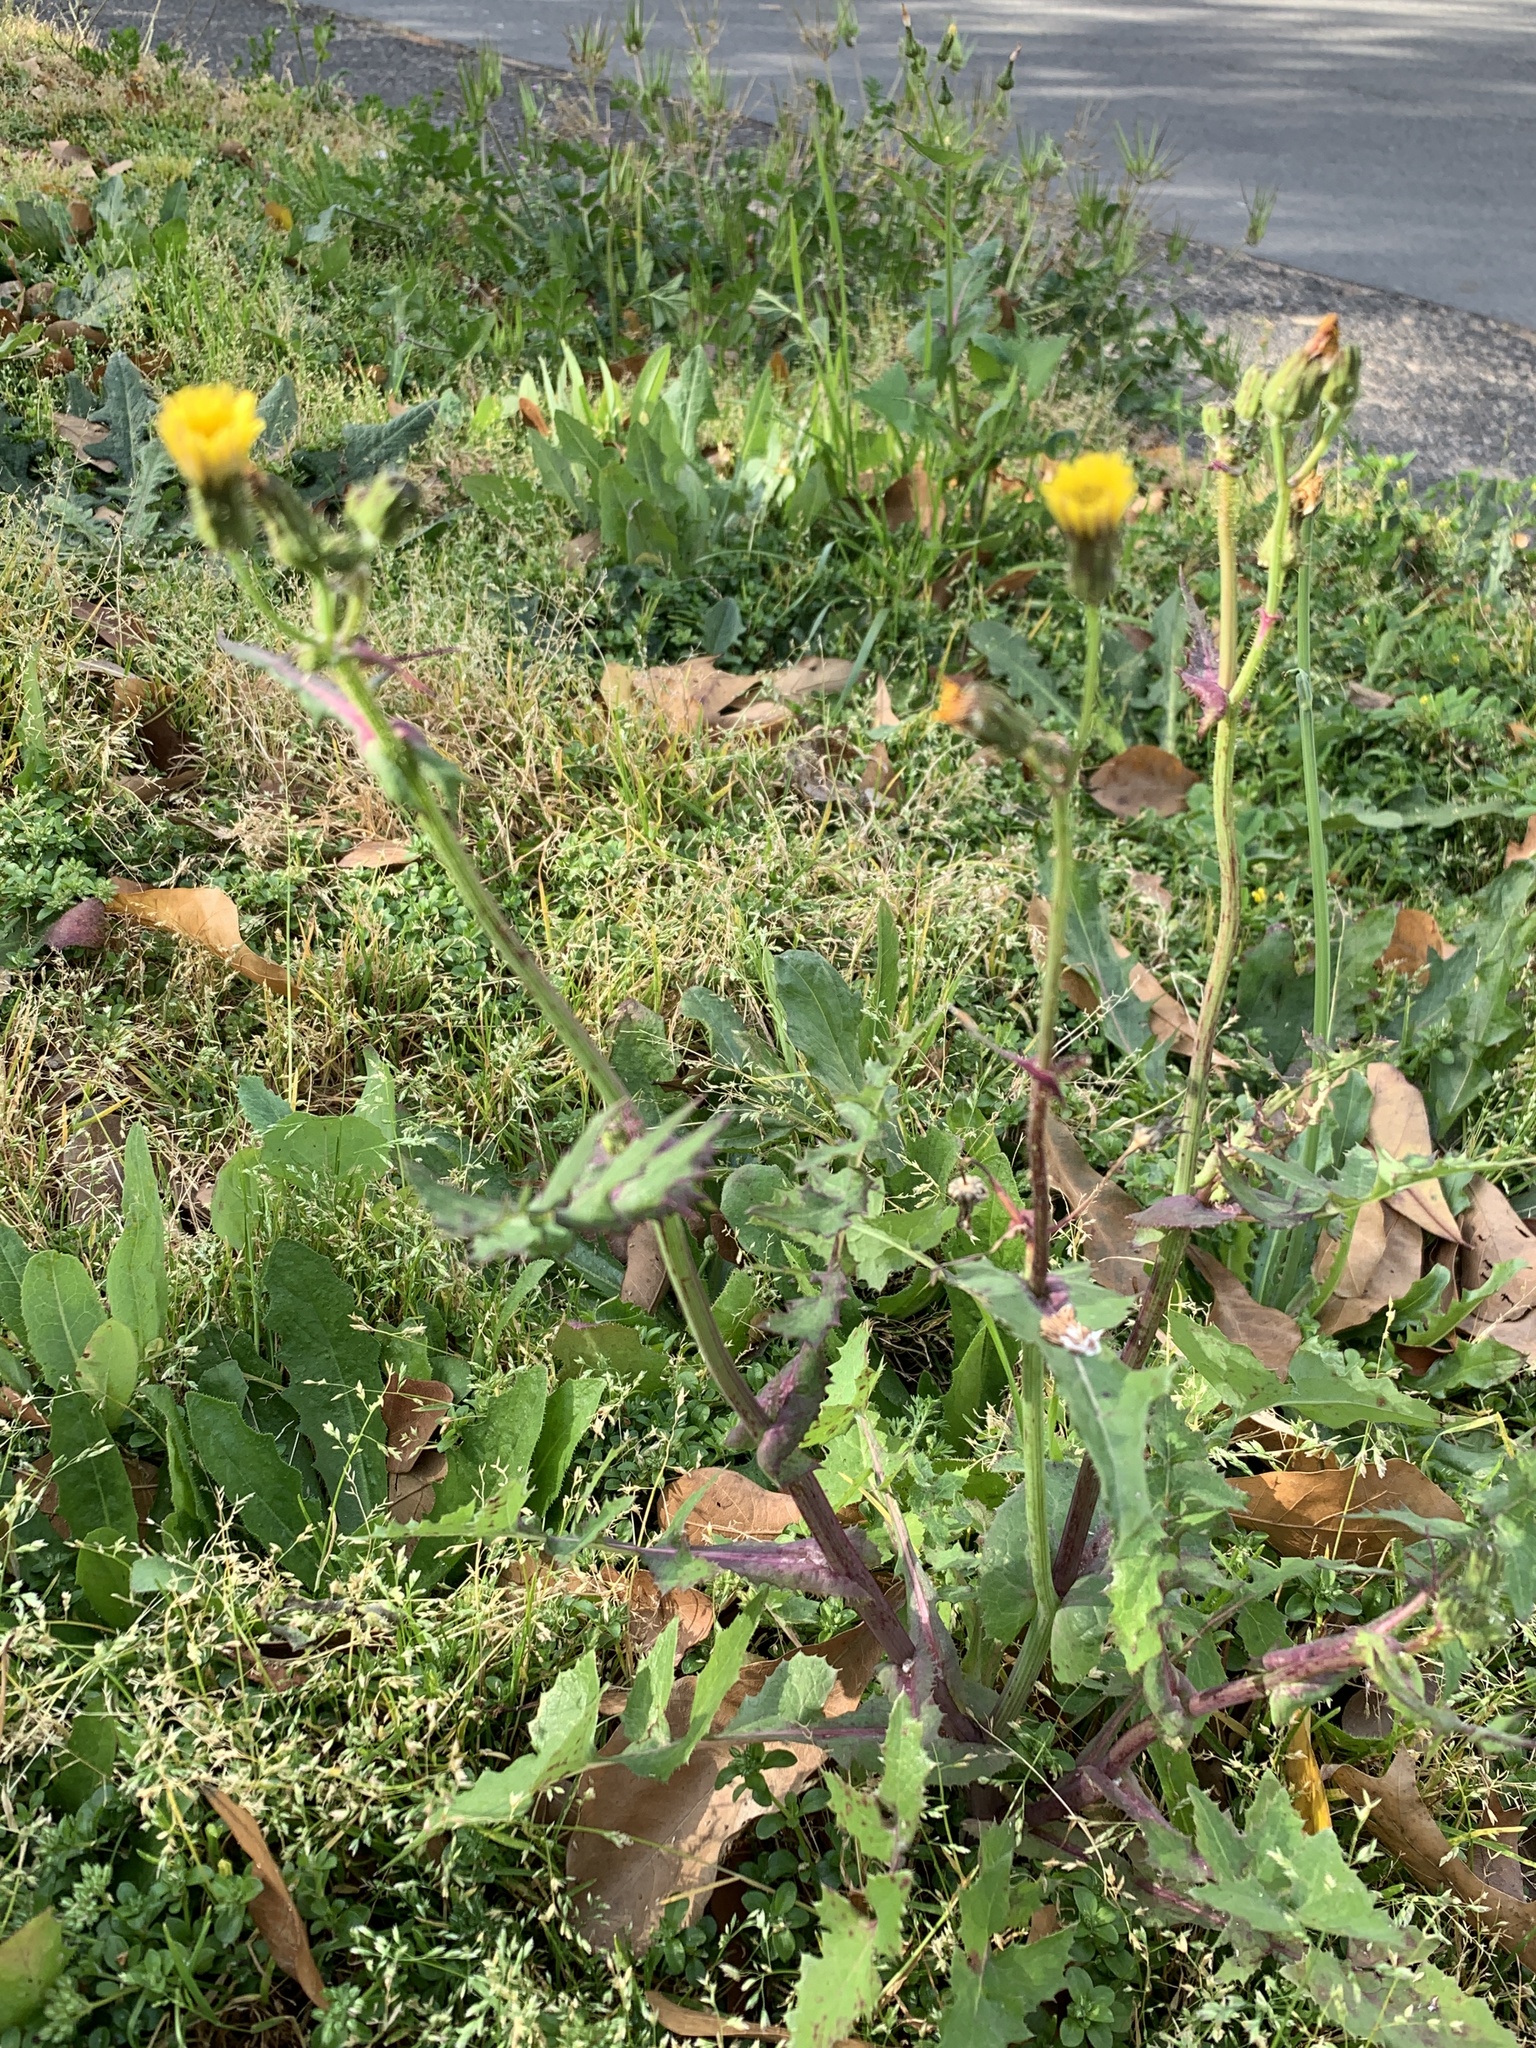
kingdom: Plantae
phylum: Tracheophyta
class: Magnoliopsida
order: Asterales
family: Asteraceae
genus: Sonchus
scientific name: Sonchus oleraceus
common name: Common sowthistle
